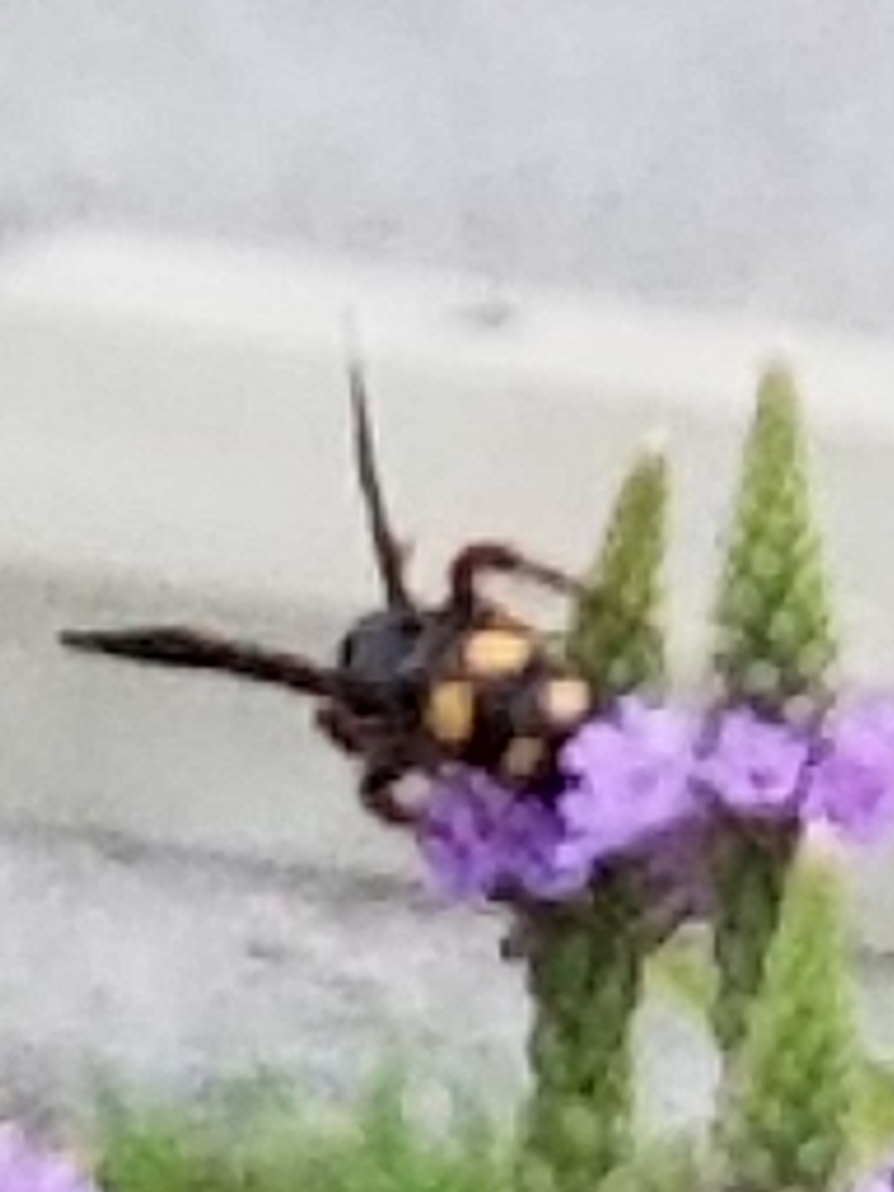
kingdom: Animalia
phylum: Arthropoda
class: Insecta
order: Hymenoptera
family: Scoliidae
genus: Scolia
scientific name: Scolia nobilitata
